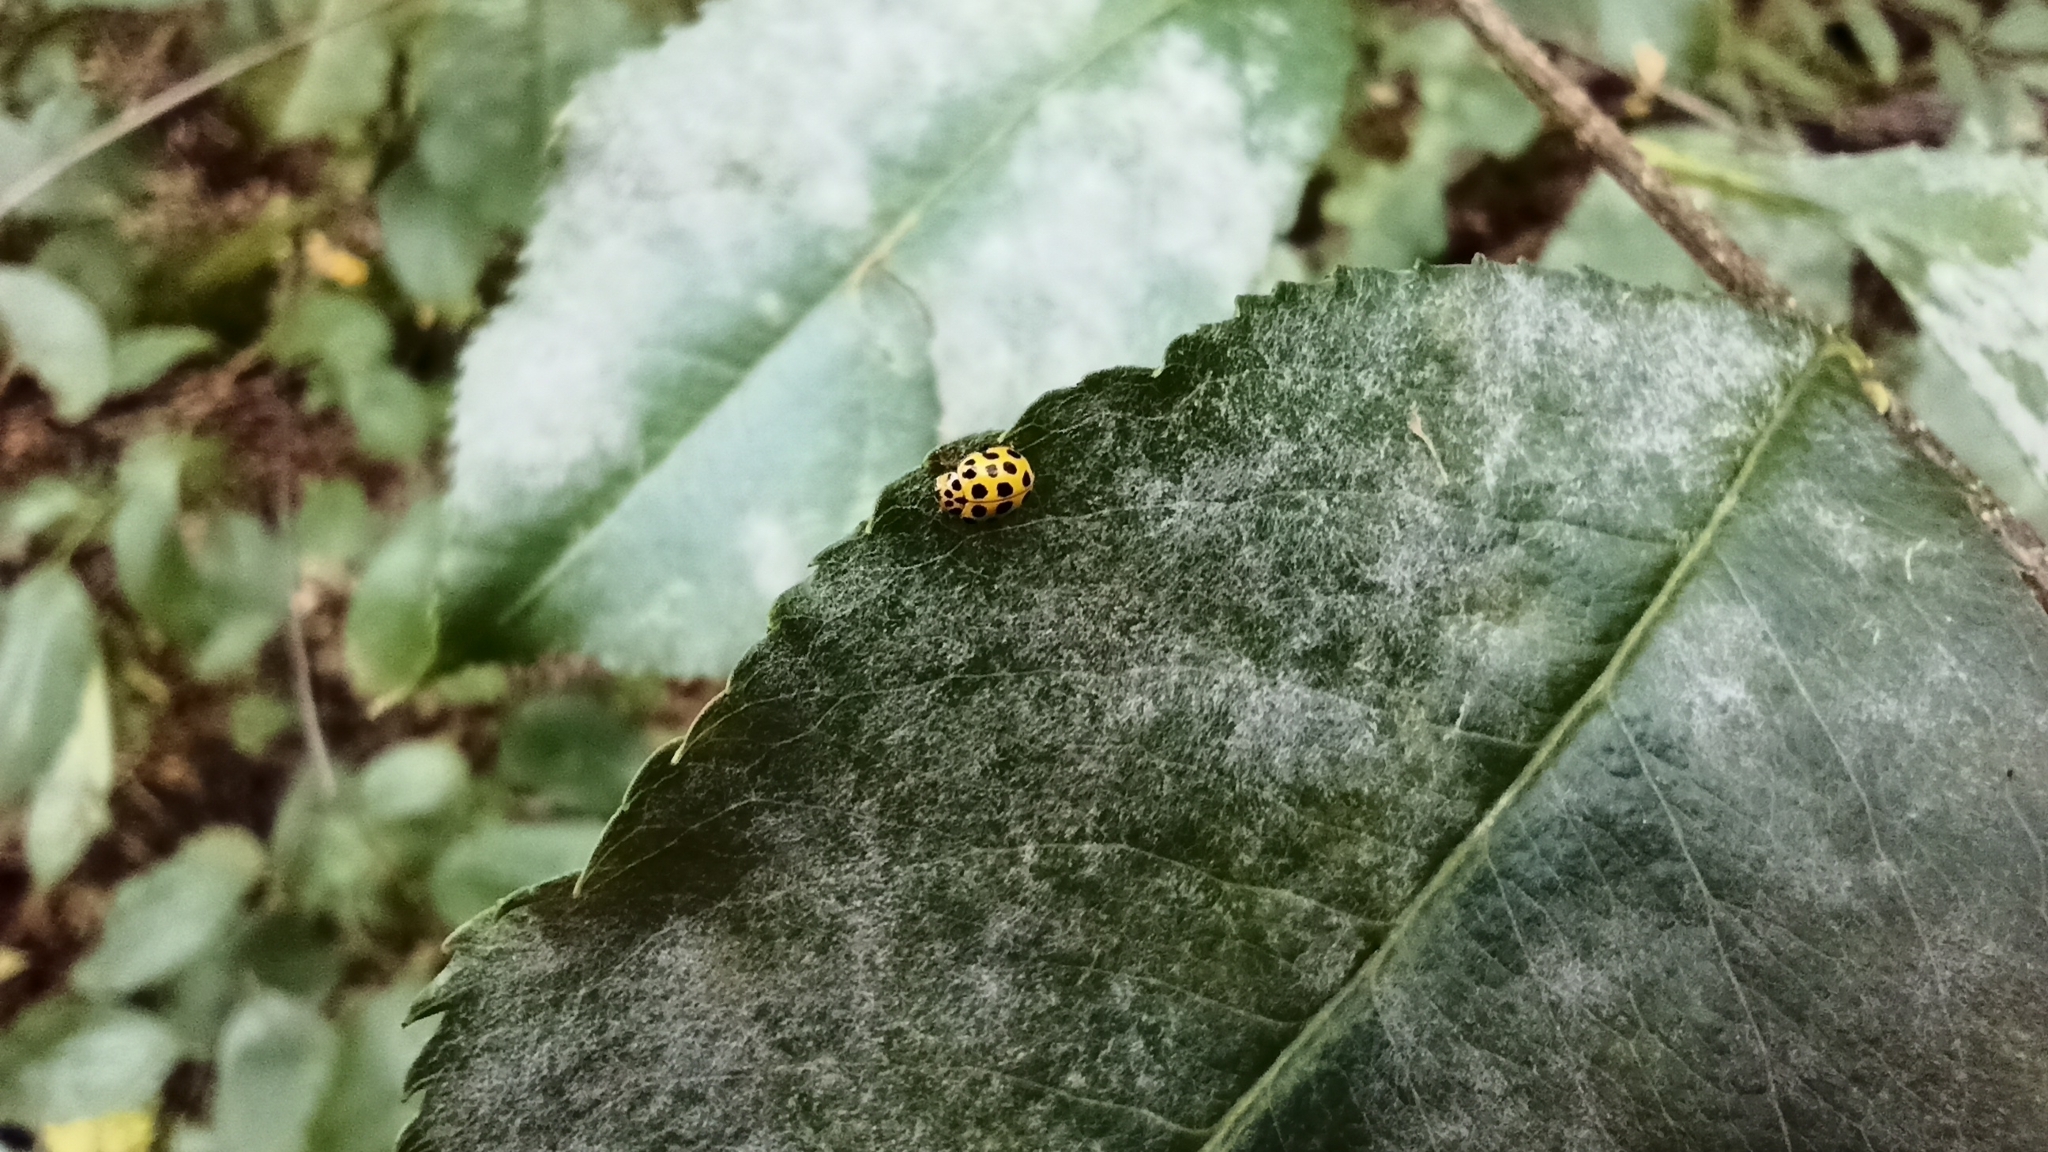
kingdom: Animalia
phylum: Arthropoda
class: Insecta
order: Coleoptera
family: Coccinellidae
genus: Psyllobora
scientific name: Psyllobora vigintiduopunctata
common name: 22-spot ladybird
